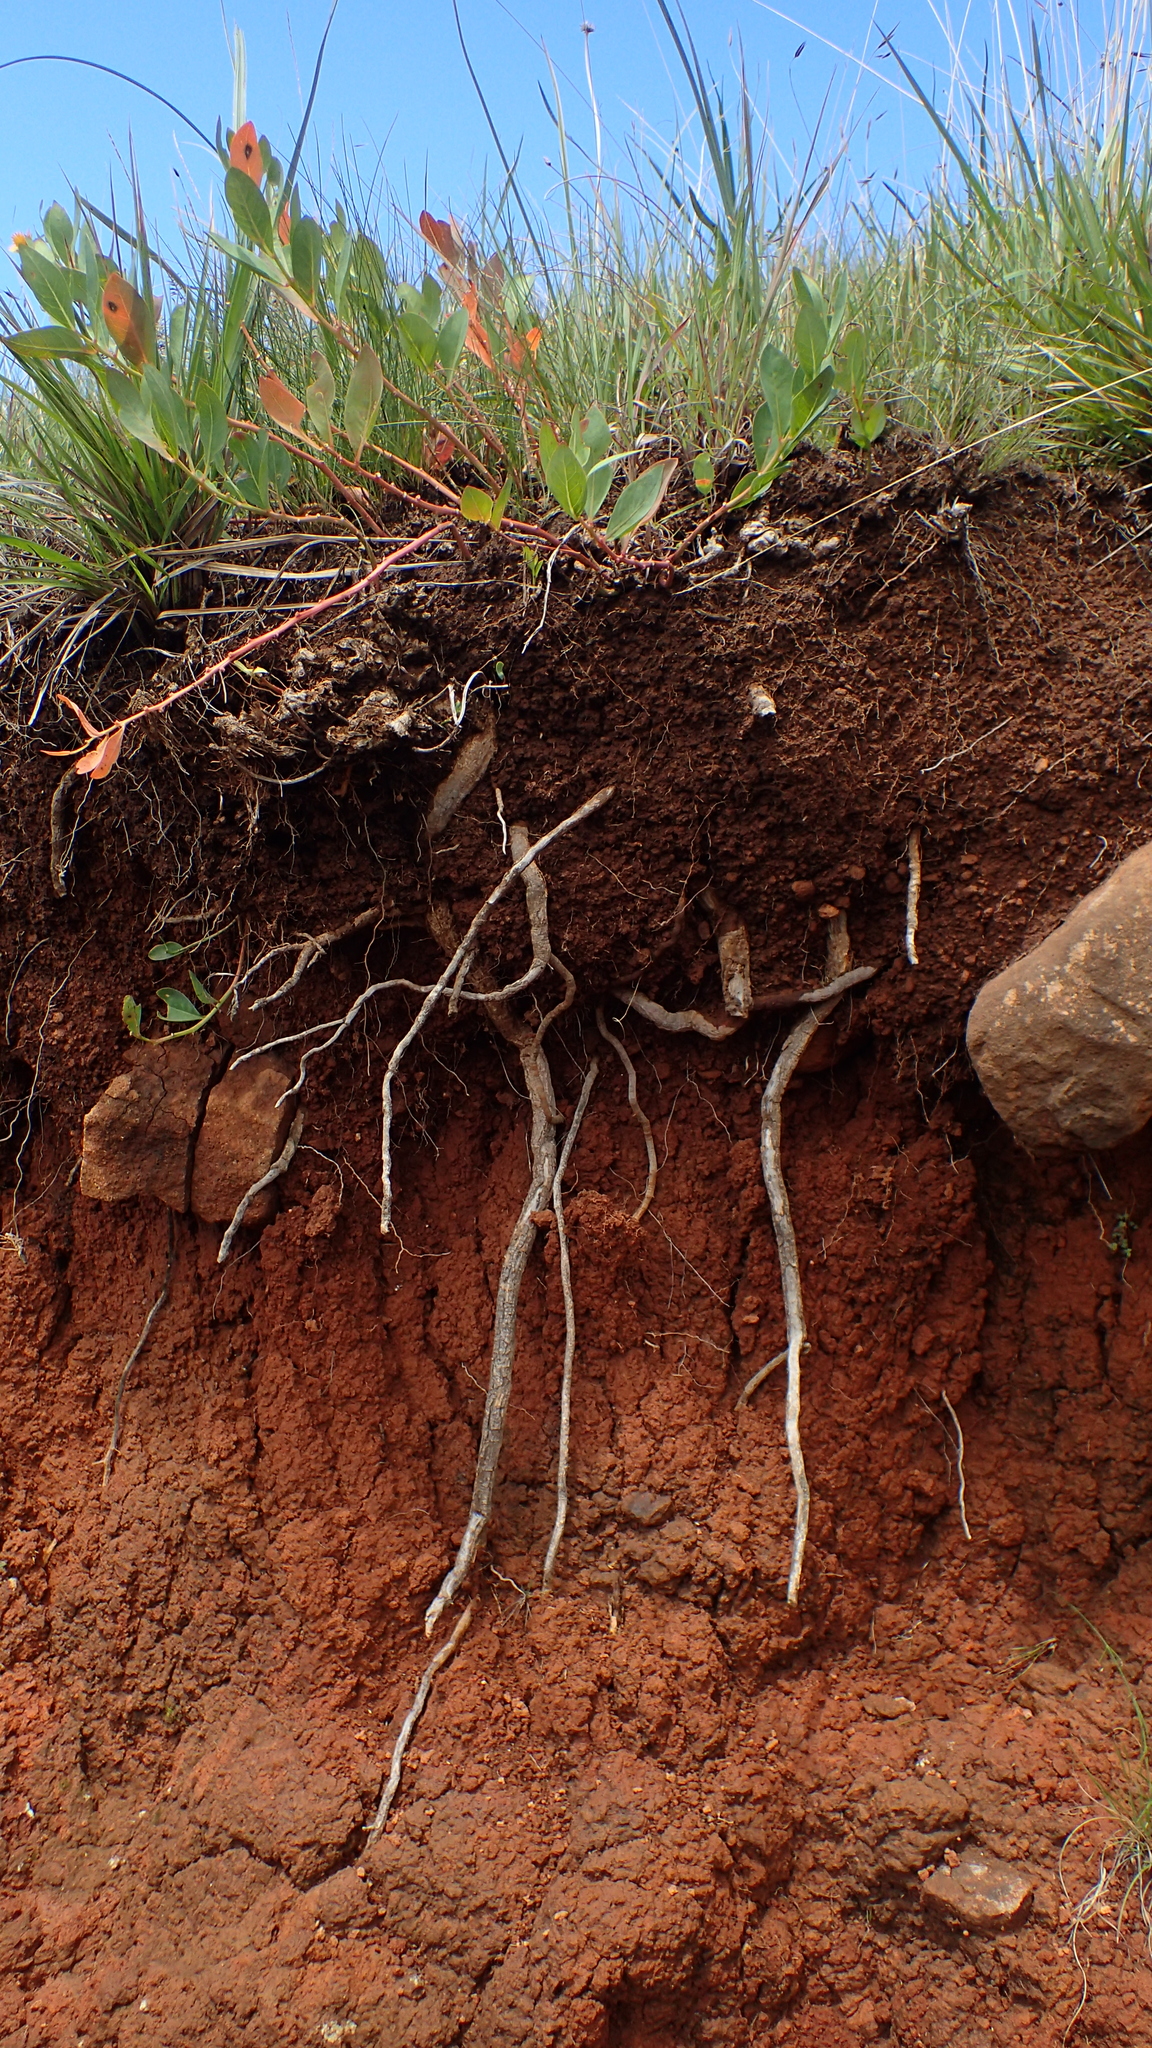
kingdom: Plantae
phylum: Tracheophyta
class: Magnoliopsida
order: Malpighiales
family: Peraceae
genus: Clutia
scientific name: Clutia hirsuta
